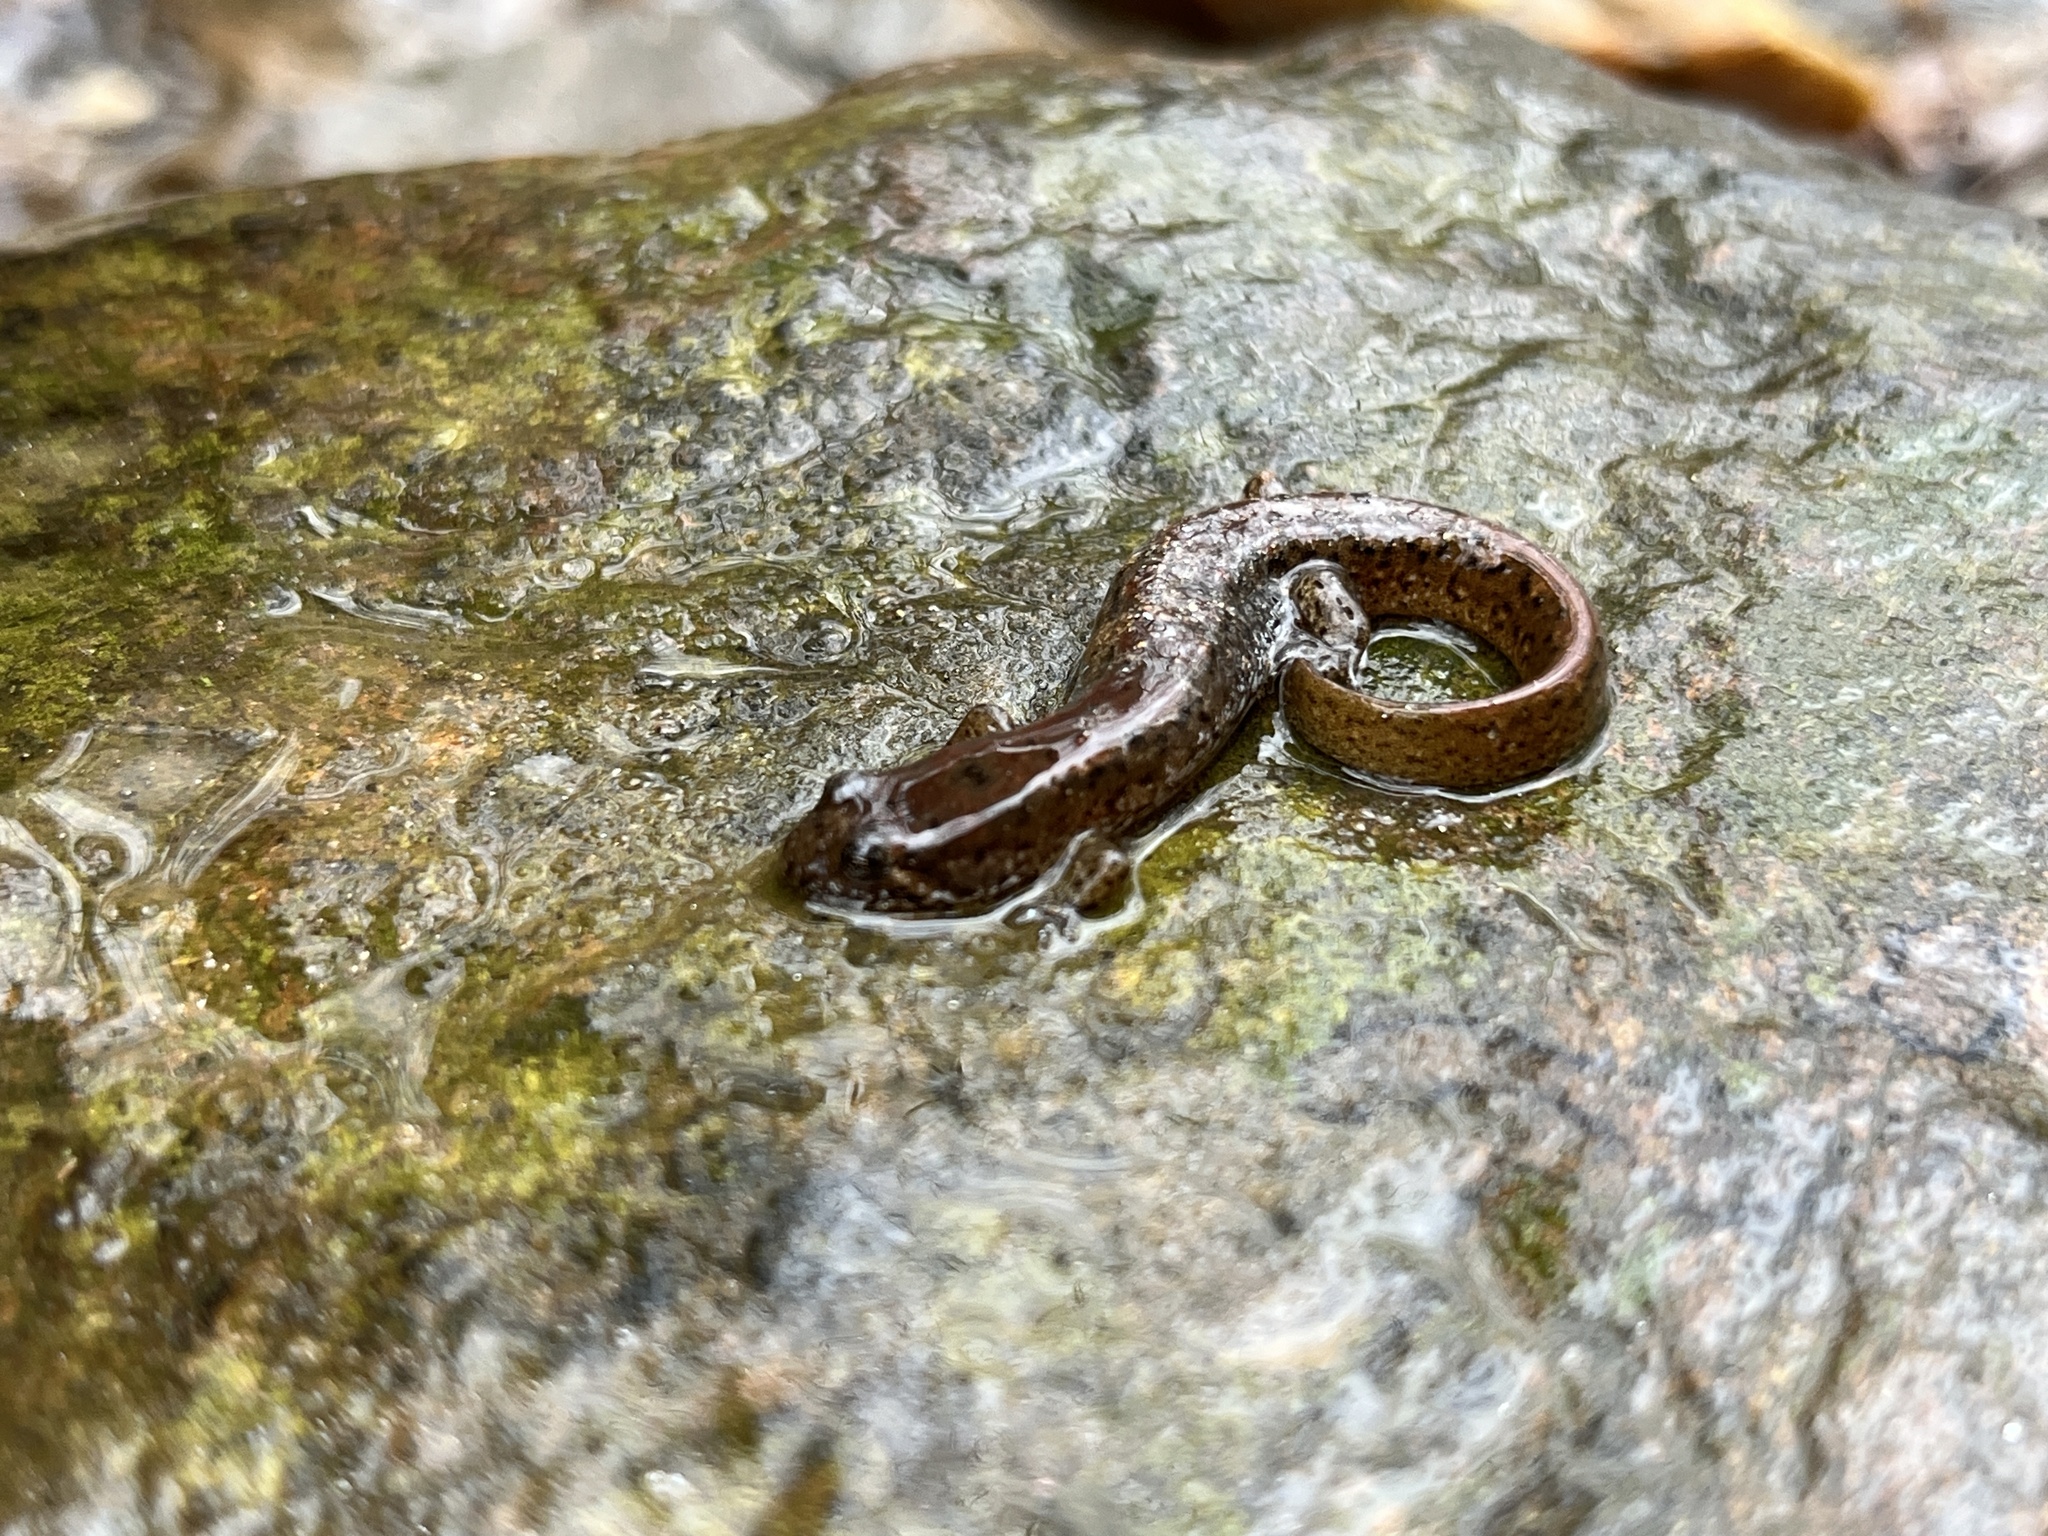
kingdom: Animalia
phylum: Chordata
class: Amphibia
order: Caudata
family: Plethodontidae
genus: Desmognathus
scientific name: Desmognathus planiceps
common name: Flat-headed salamander
